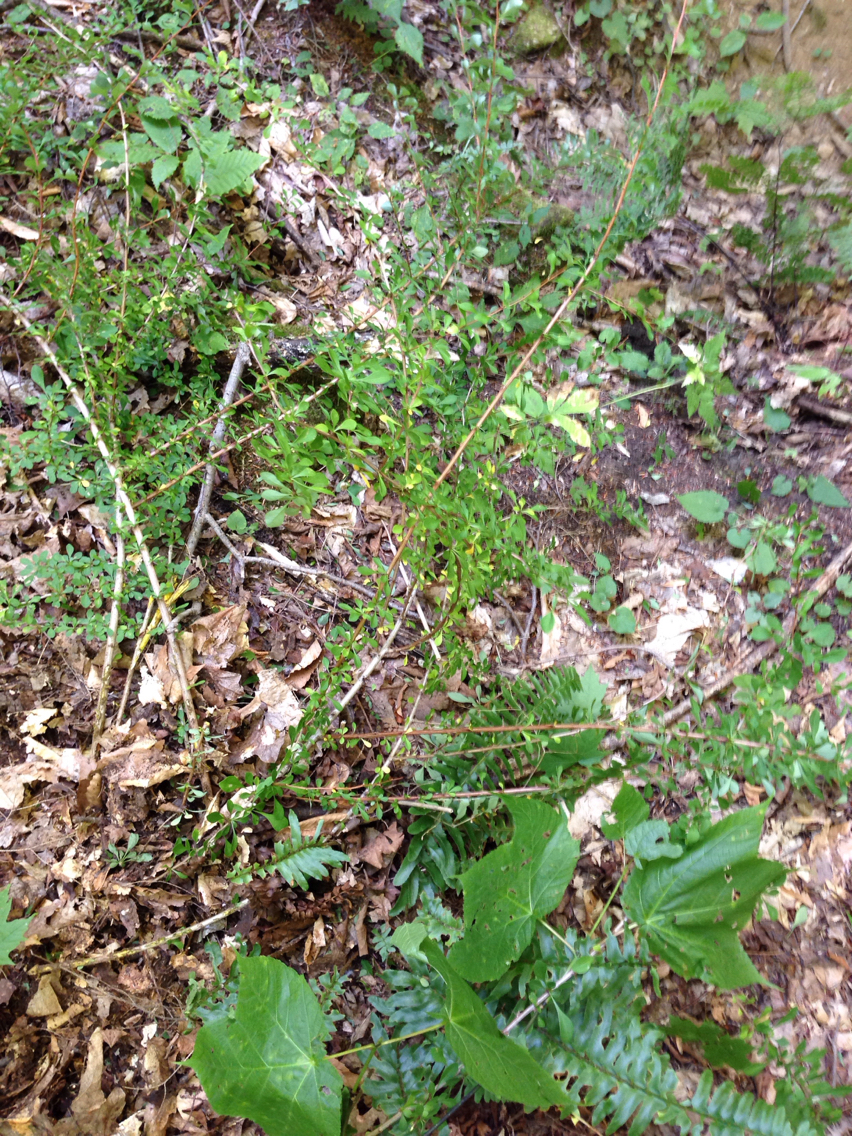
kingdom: Plantae
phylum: Tracheophyta
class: Magnoliopsida
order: Ranunculales
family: Berberidaceae
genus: Berberis
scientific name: Berberis thunbergii
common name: Japanese barberry
